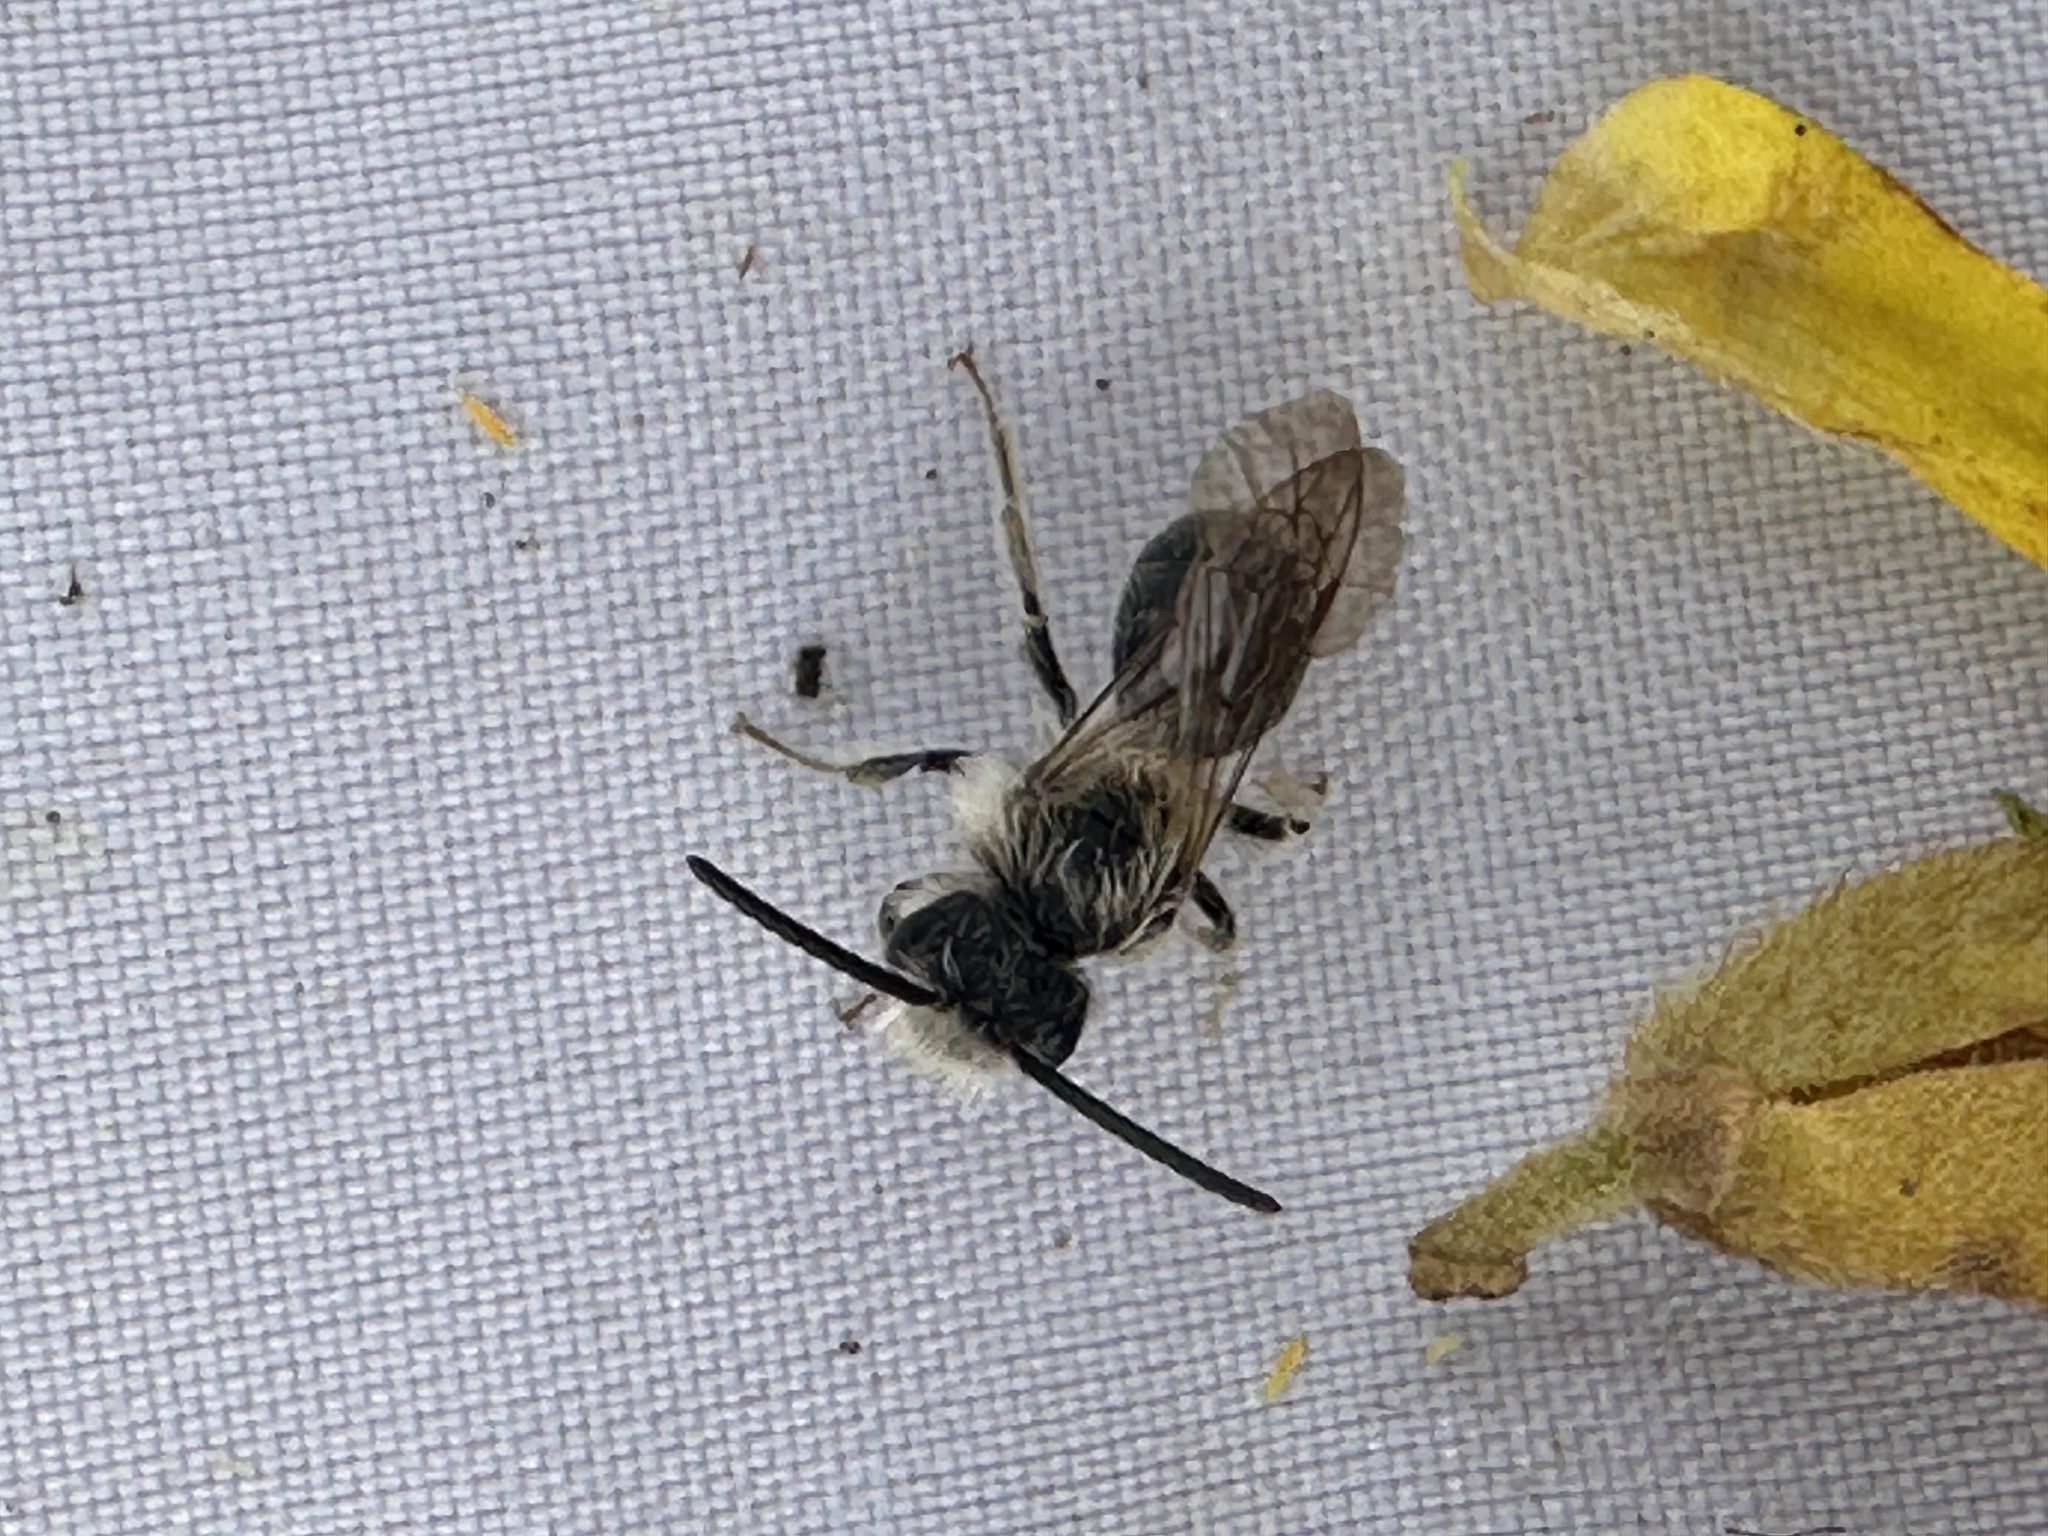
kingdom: Animalia
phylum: Arthropoda
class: Insecta
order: Hymenoptera
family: Andrenidae
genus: Andrena
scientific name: Andrena cineraria
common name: Ashy mining bee
